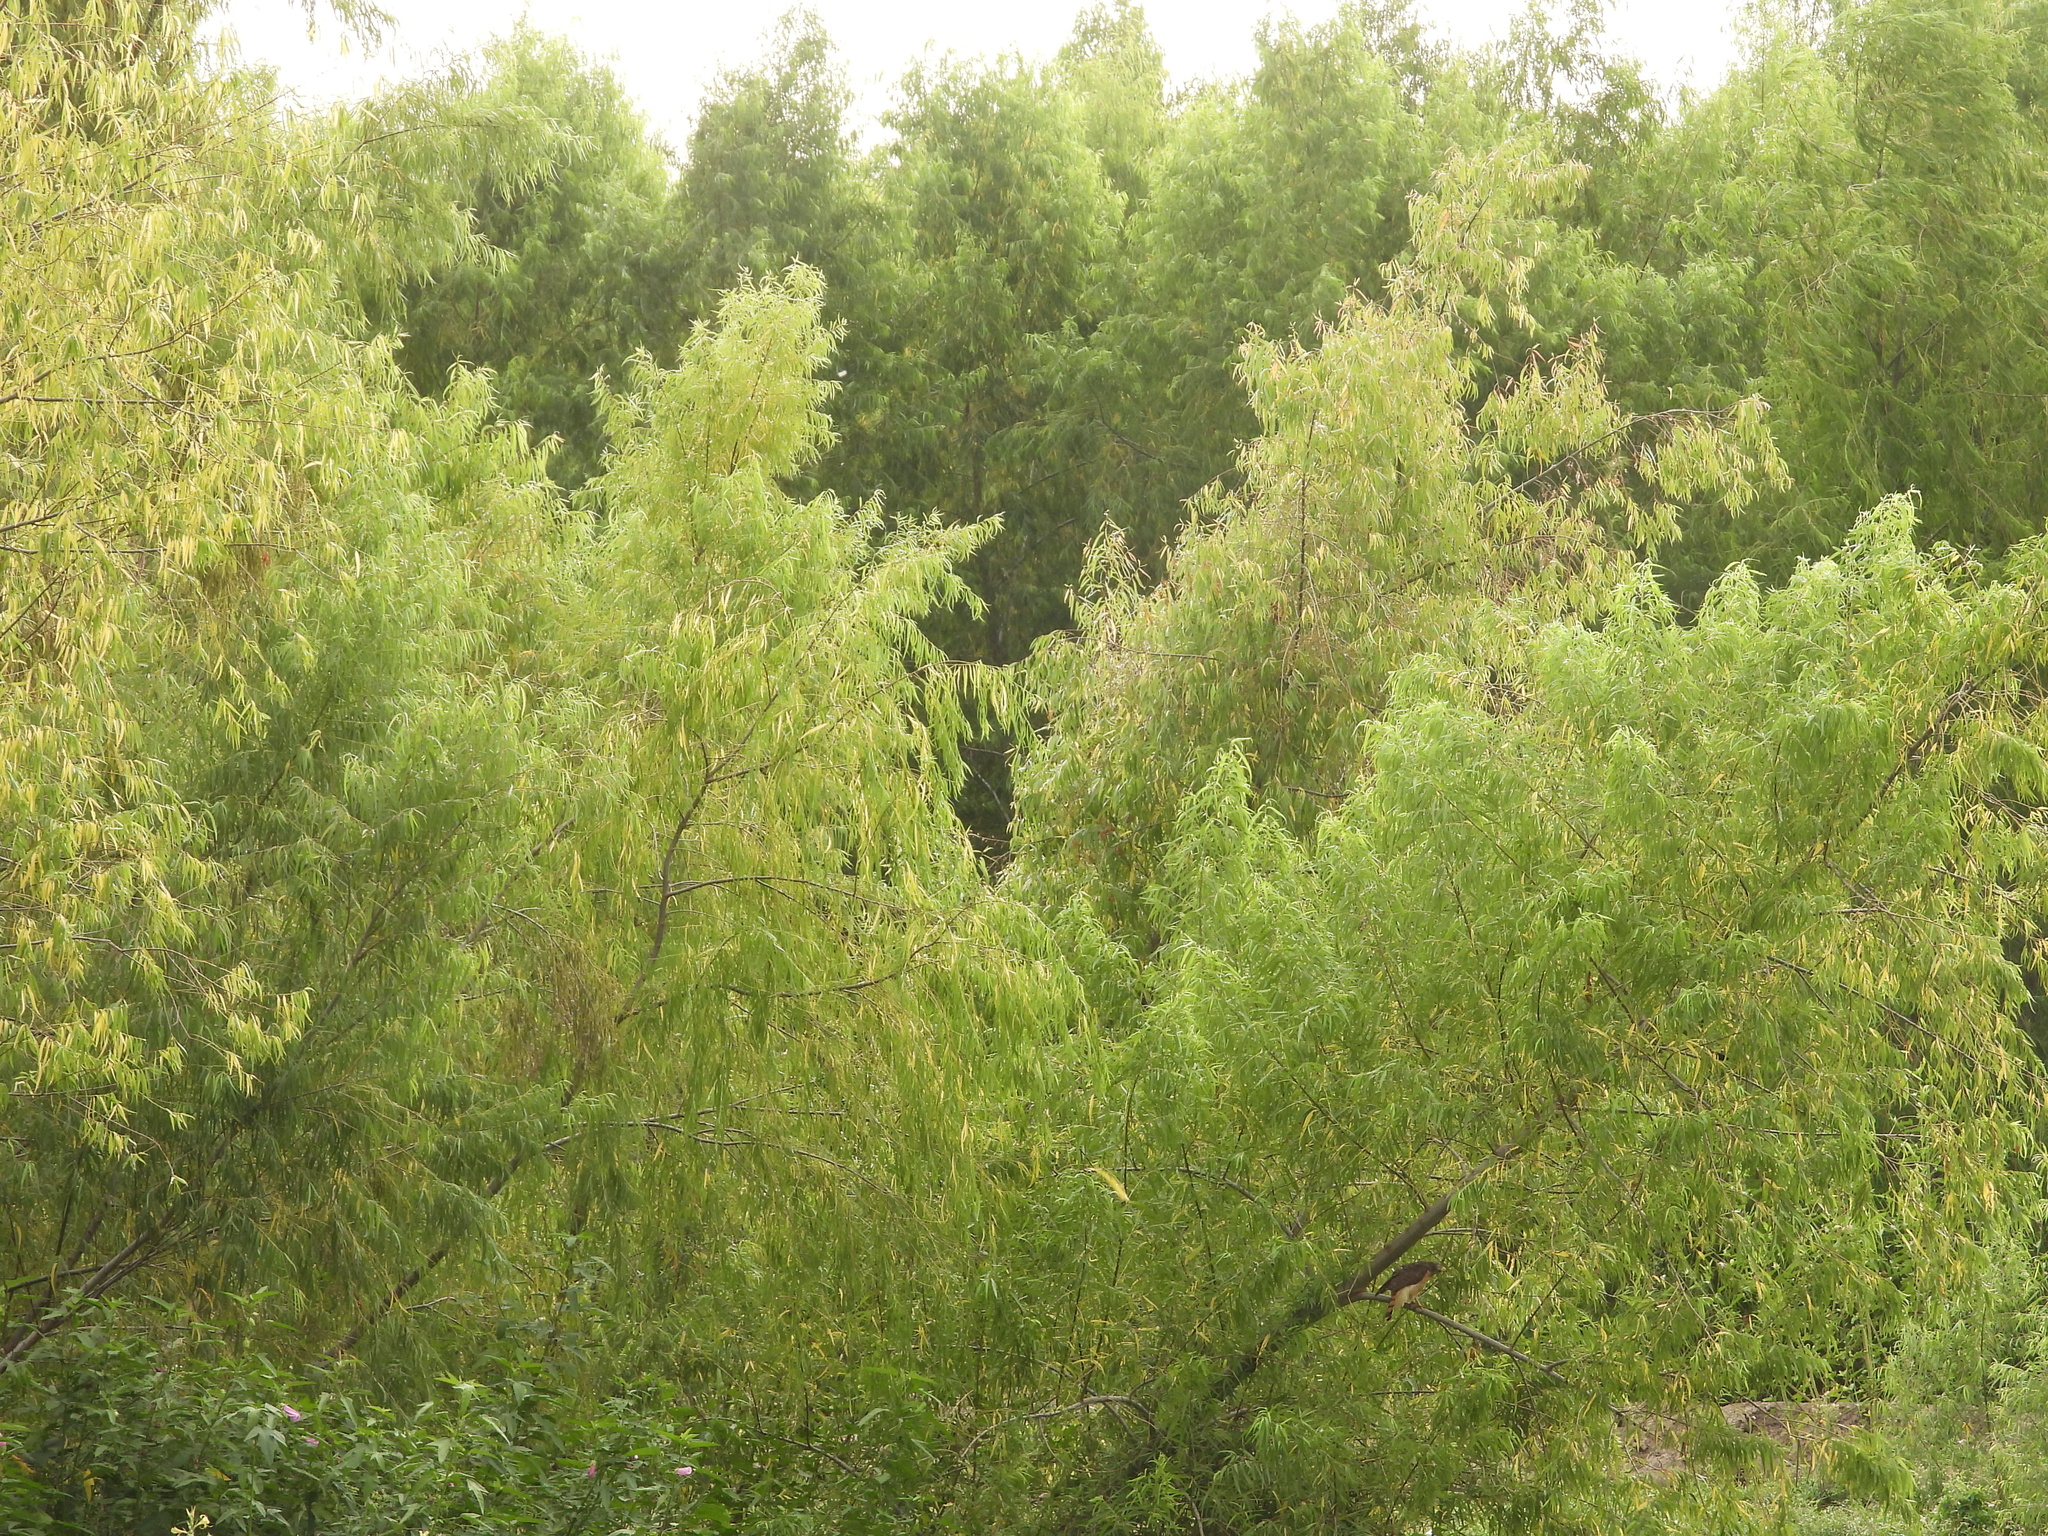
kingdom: Plantae
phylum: Tracheophyta
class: Magnoliopsida
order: Malpighiales
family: Salicaceae
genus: Salix
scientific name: Salix humboldtiana
